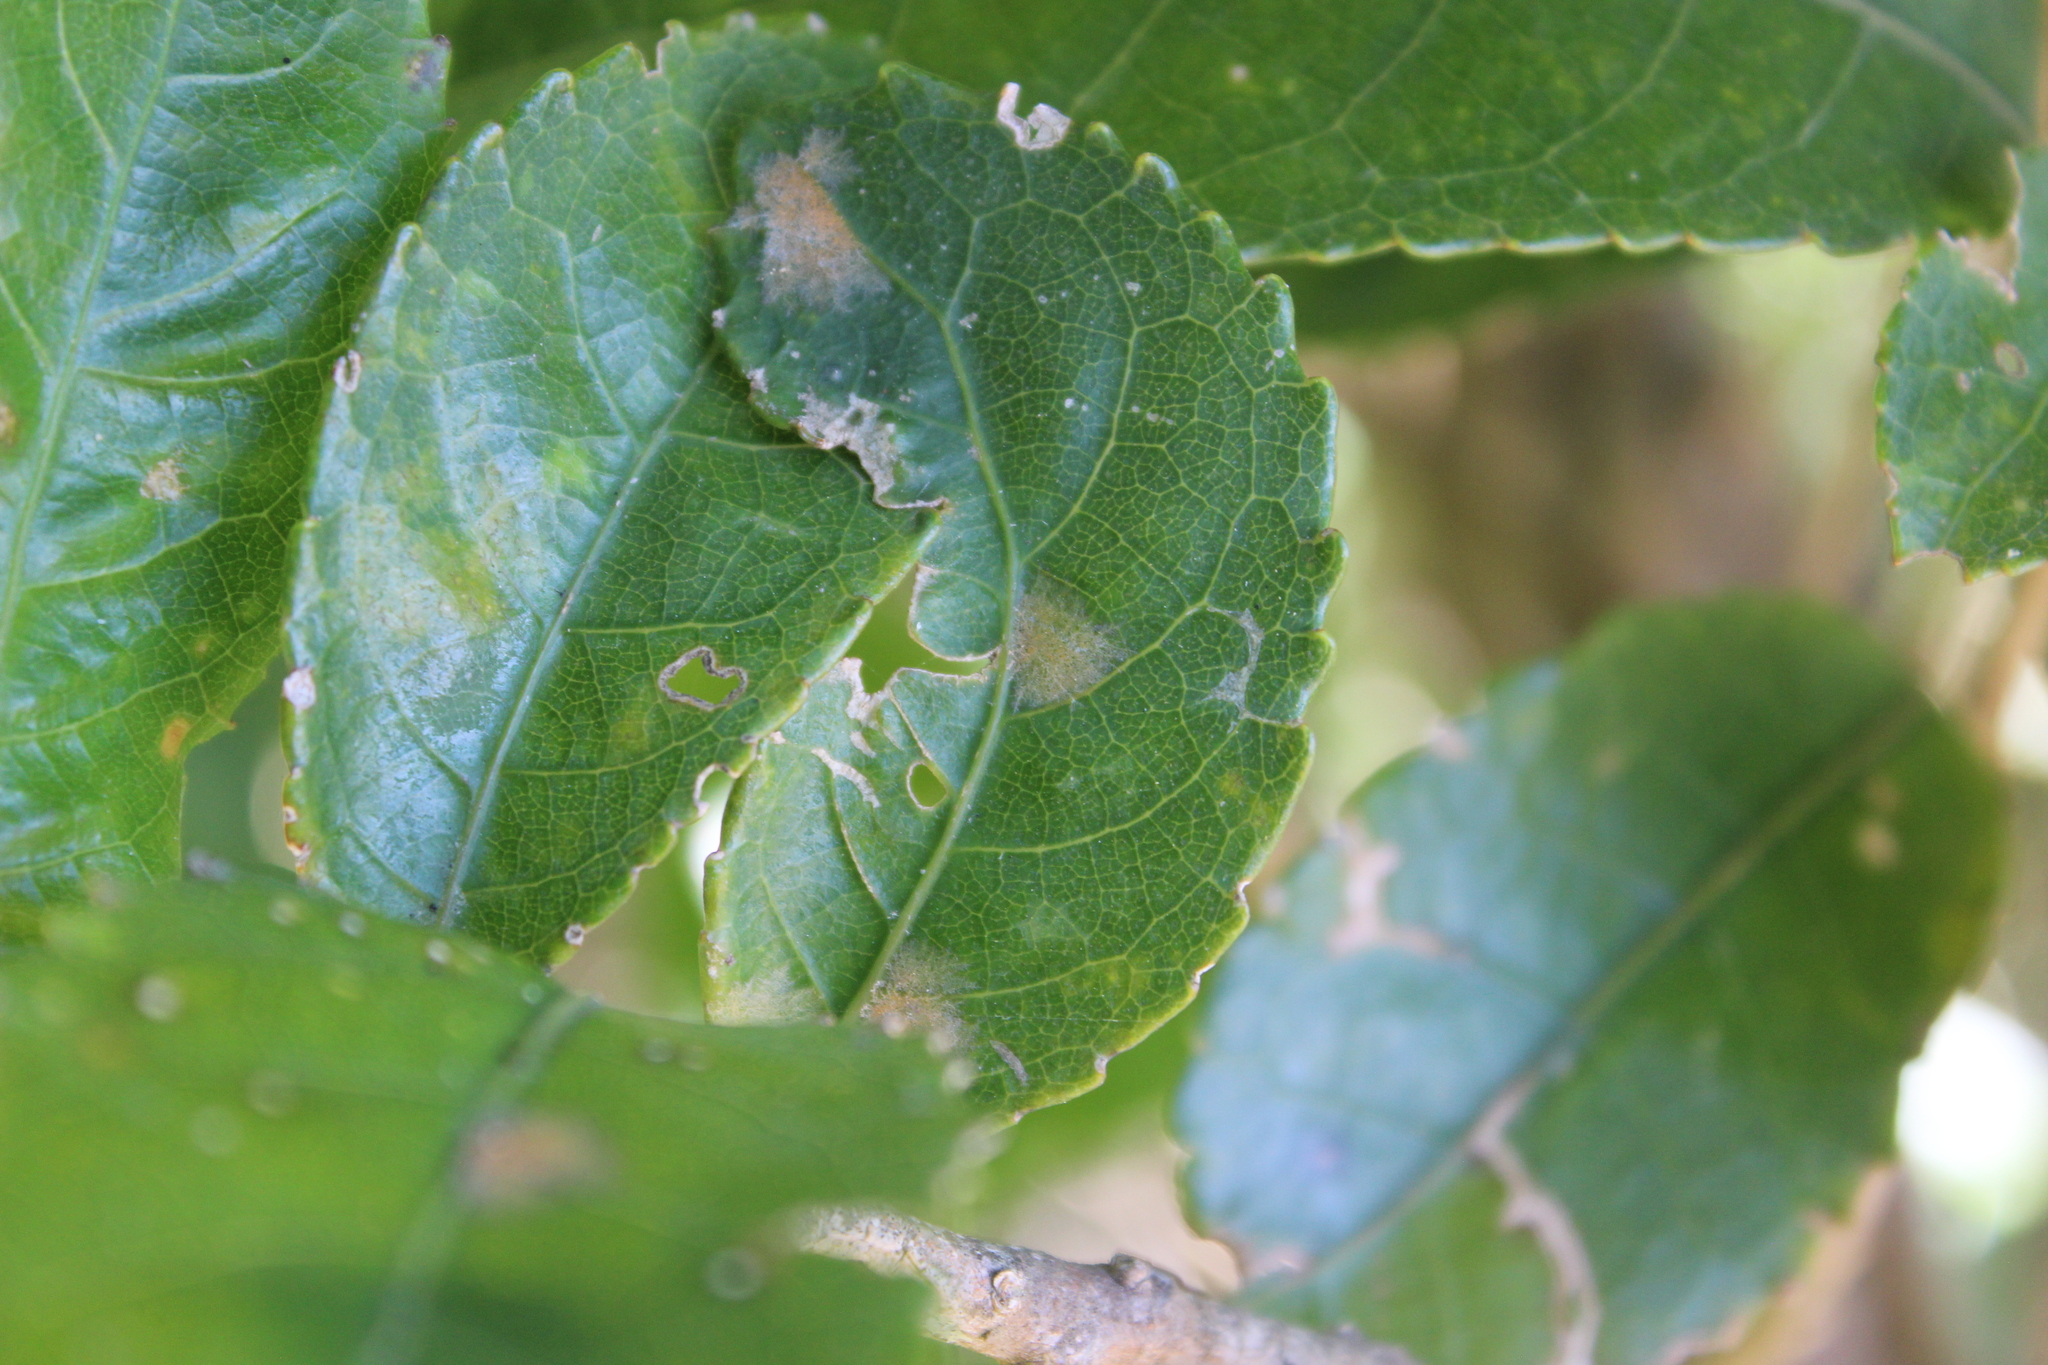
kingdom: Plantae
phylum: Tracheophyta
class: Magnoliopsida
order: Malpighiales
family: Violaceae
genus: Melicytus
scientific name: Melicytus ramiflorus
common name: Mahoe
